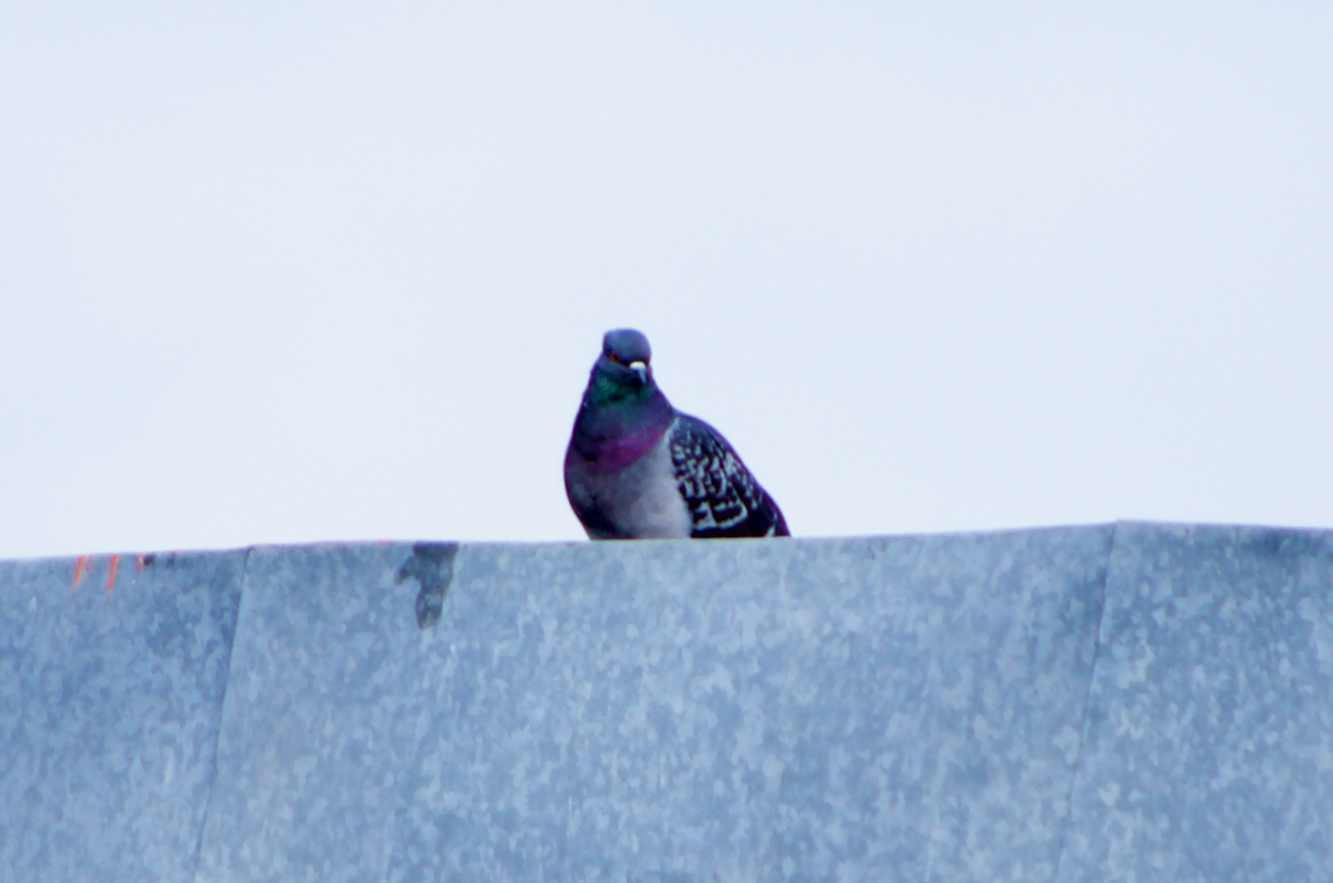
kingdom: Animalia
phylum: Chordata
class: Aves
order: Columbiformes
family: Columbidae
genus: Columba
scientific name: Columba livia
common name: Rock pigeon
